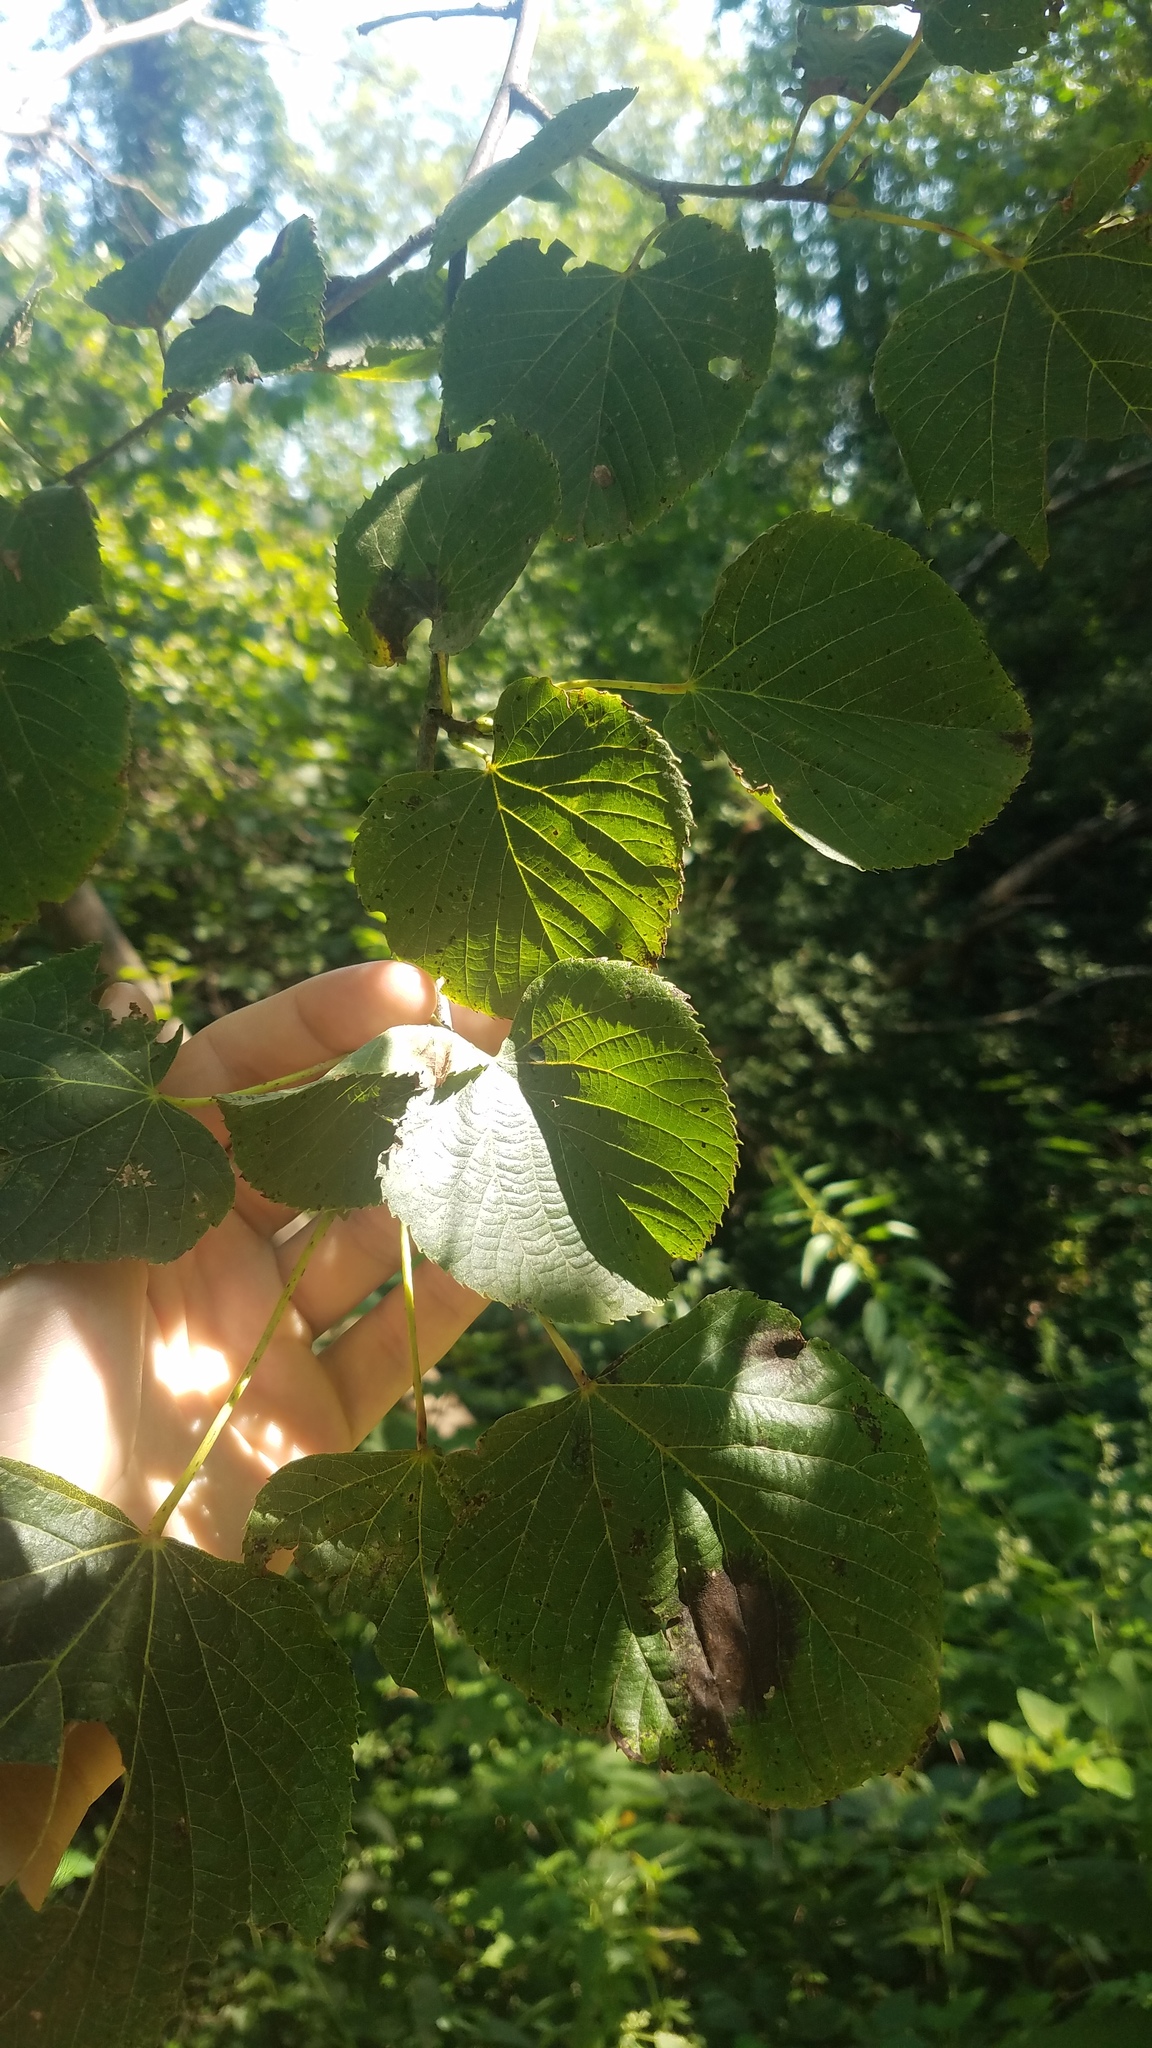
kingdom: Plantae
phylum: Tracheophyta
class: Magnoliopsida
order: Malvales
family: Malvaceae
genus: Tilia
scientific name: Tilia cordata
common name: Small-leaved lime
